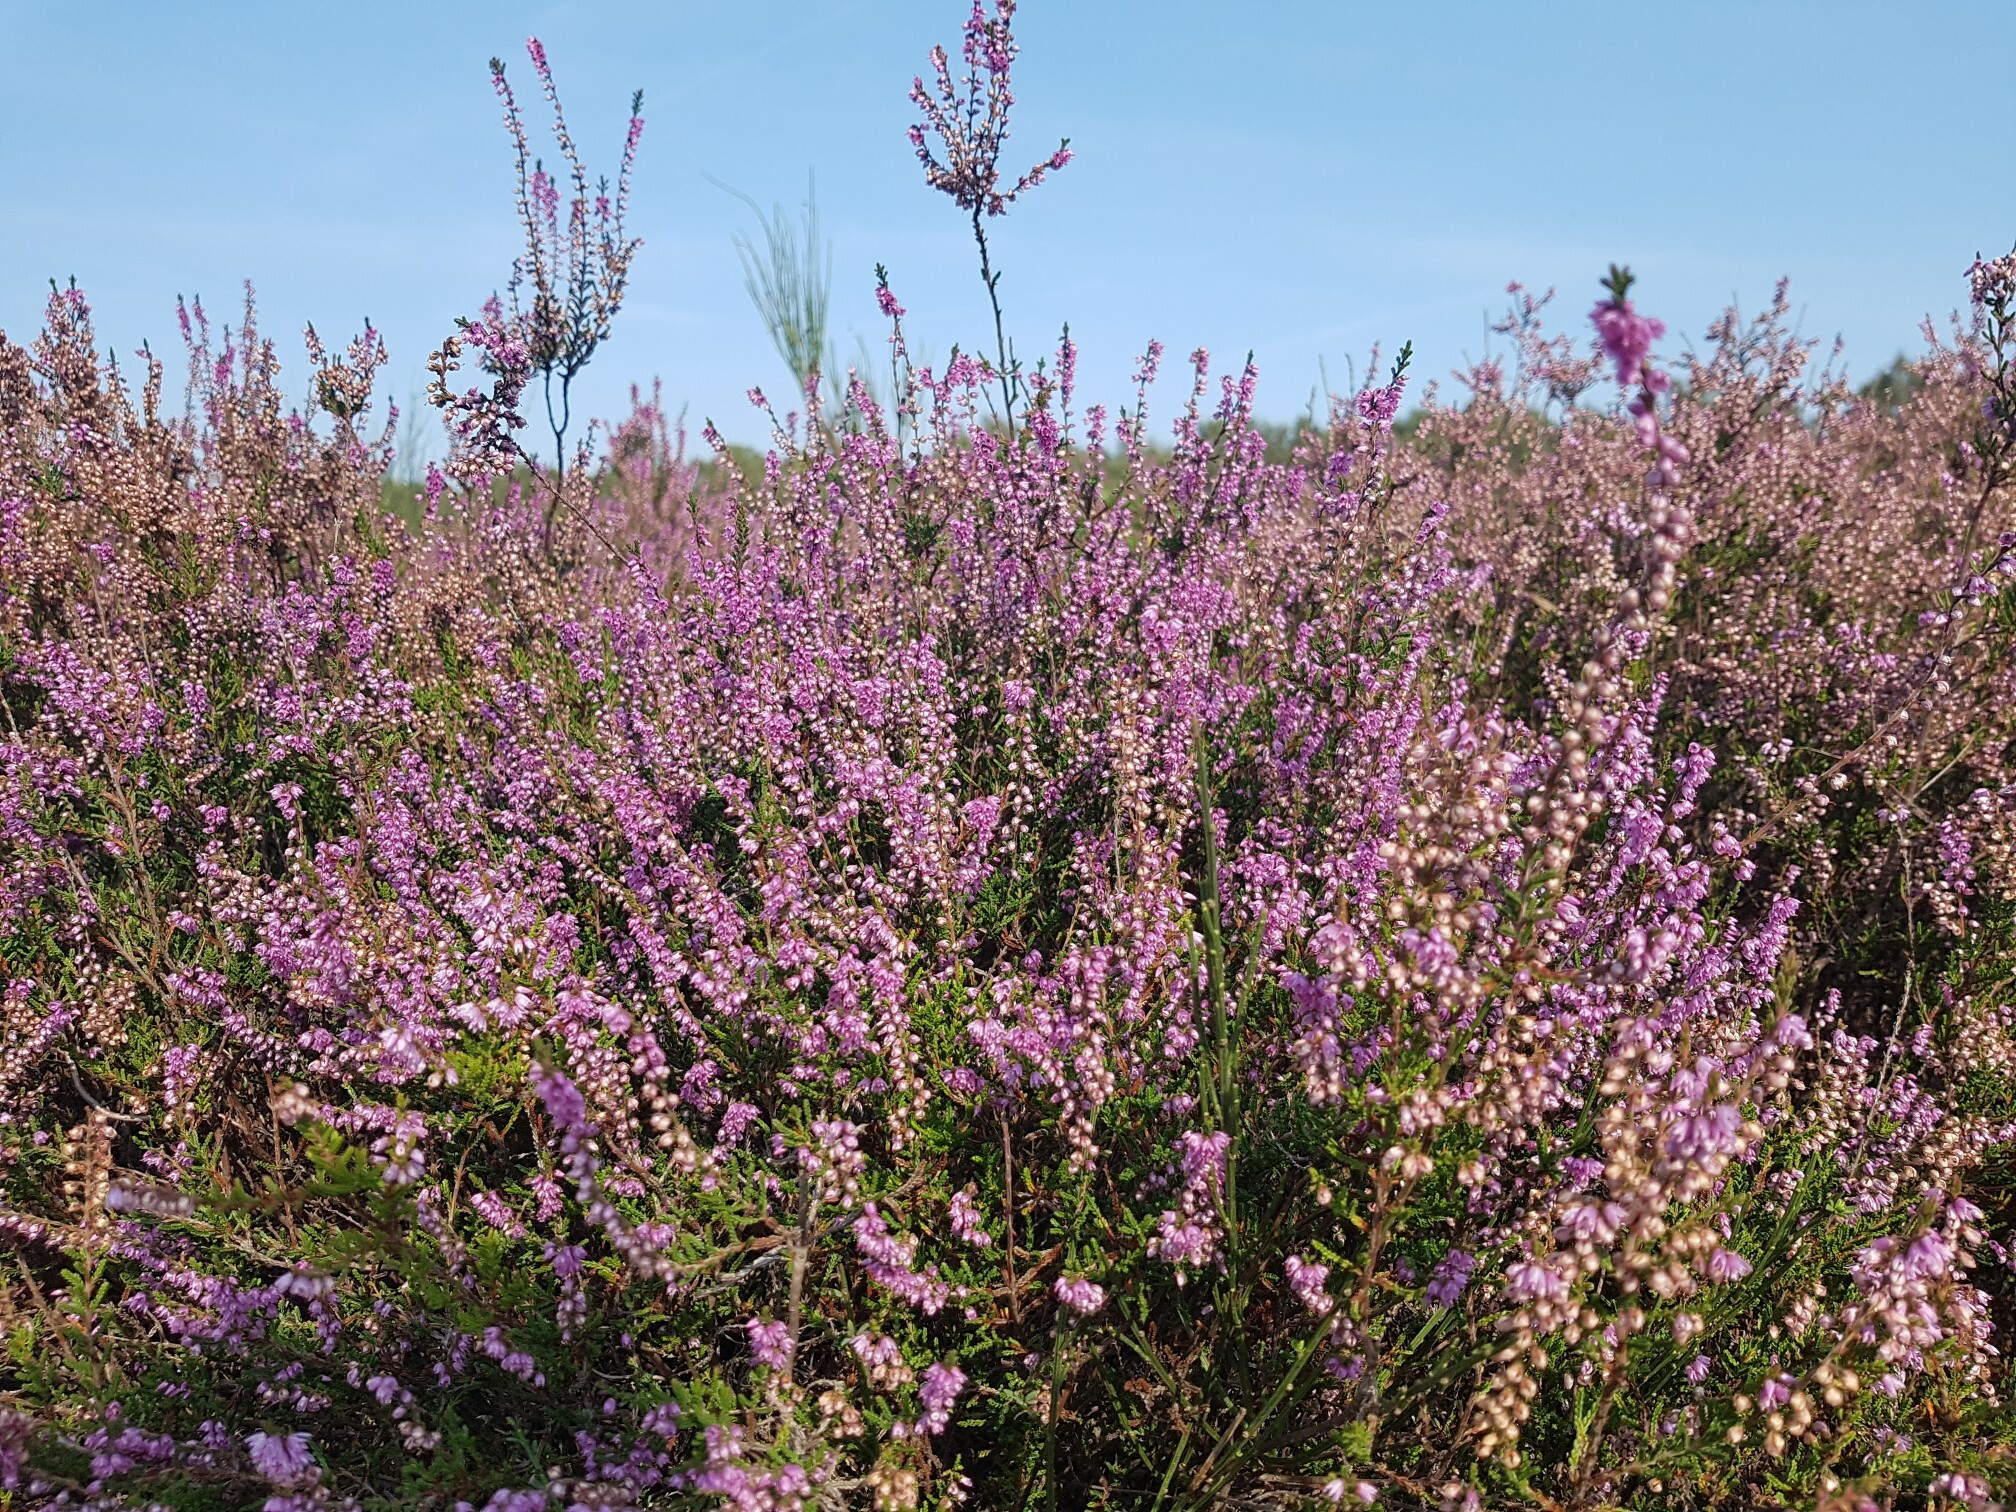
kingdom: Plantae
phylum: Tracheophyta
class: Magnoliopsida
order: Ericales
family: Ericaceae
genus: Calluna
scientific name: Calluna vulgaris
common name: Heather
